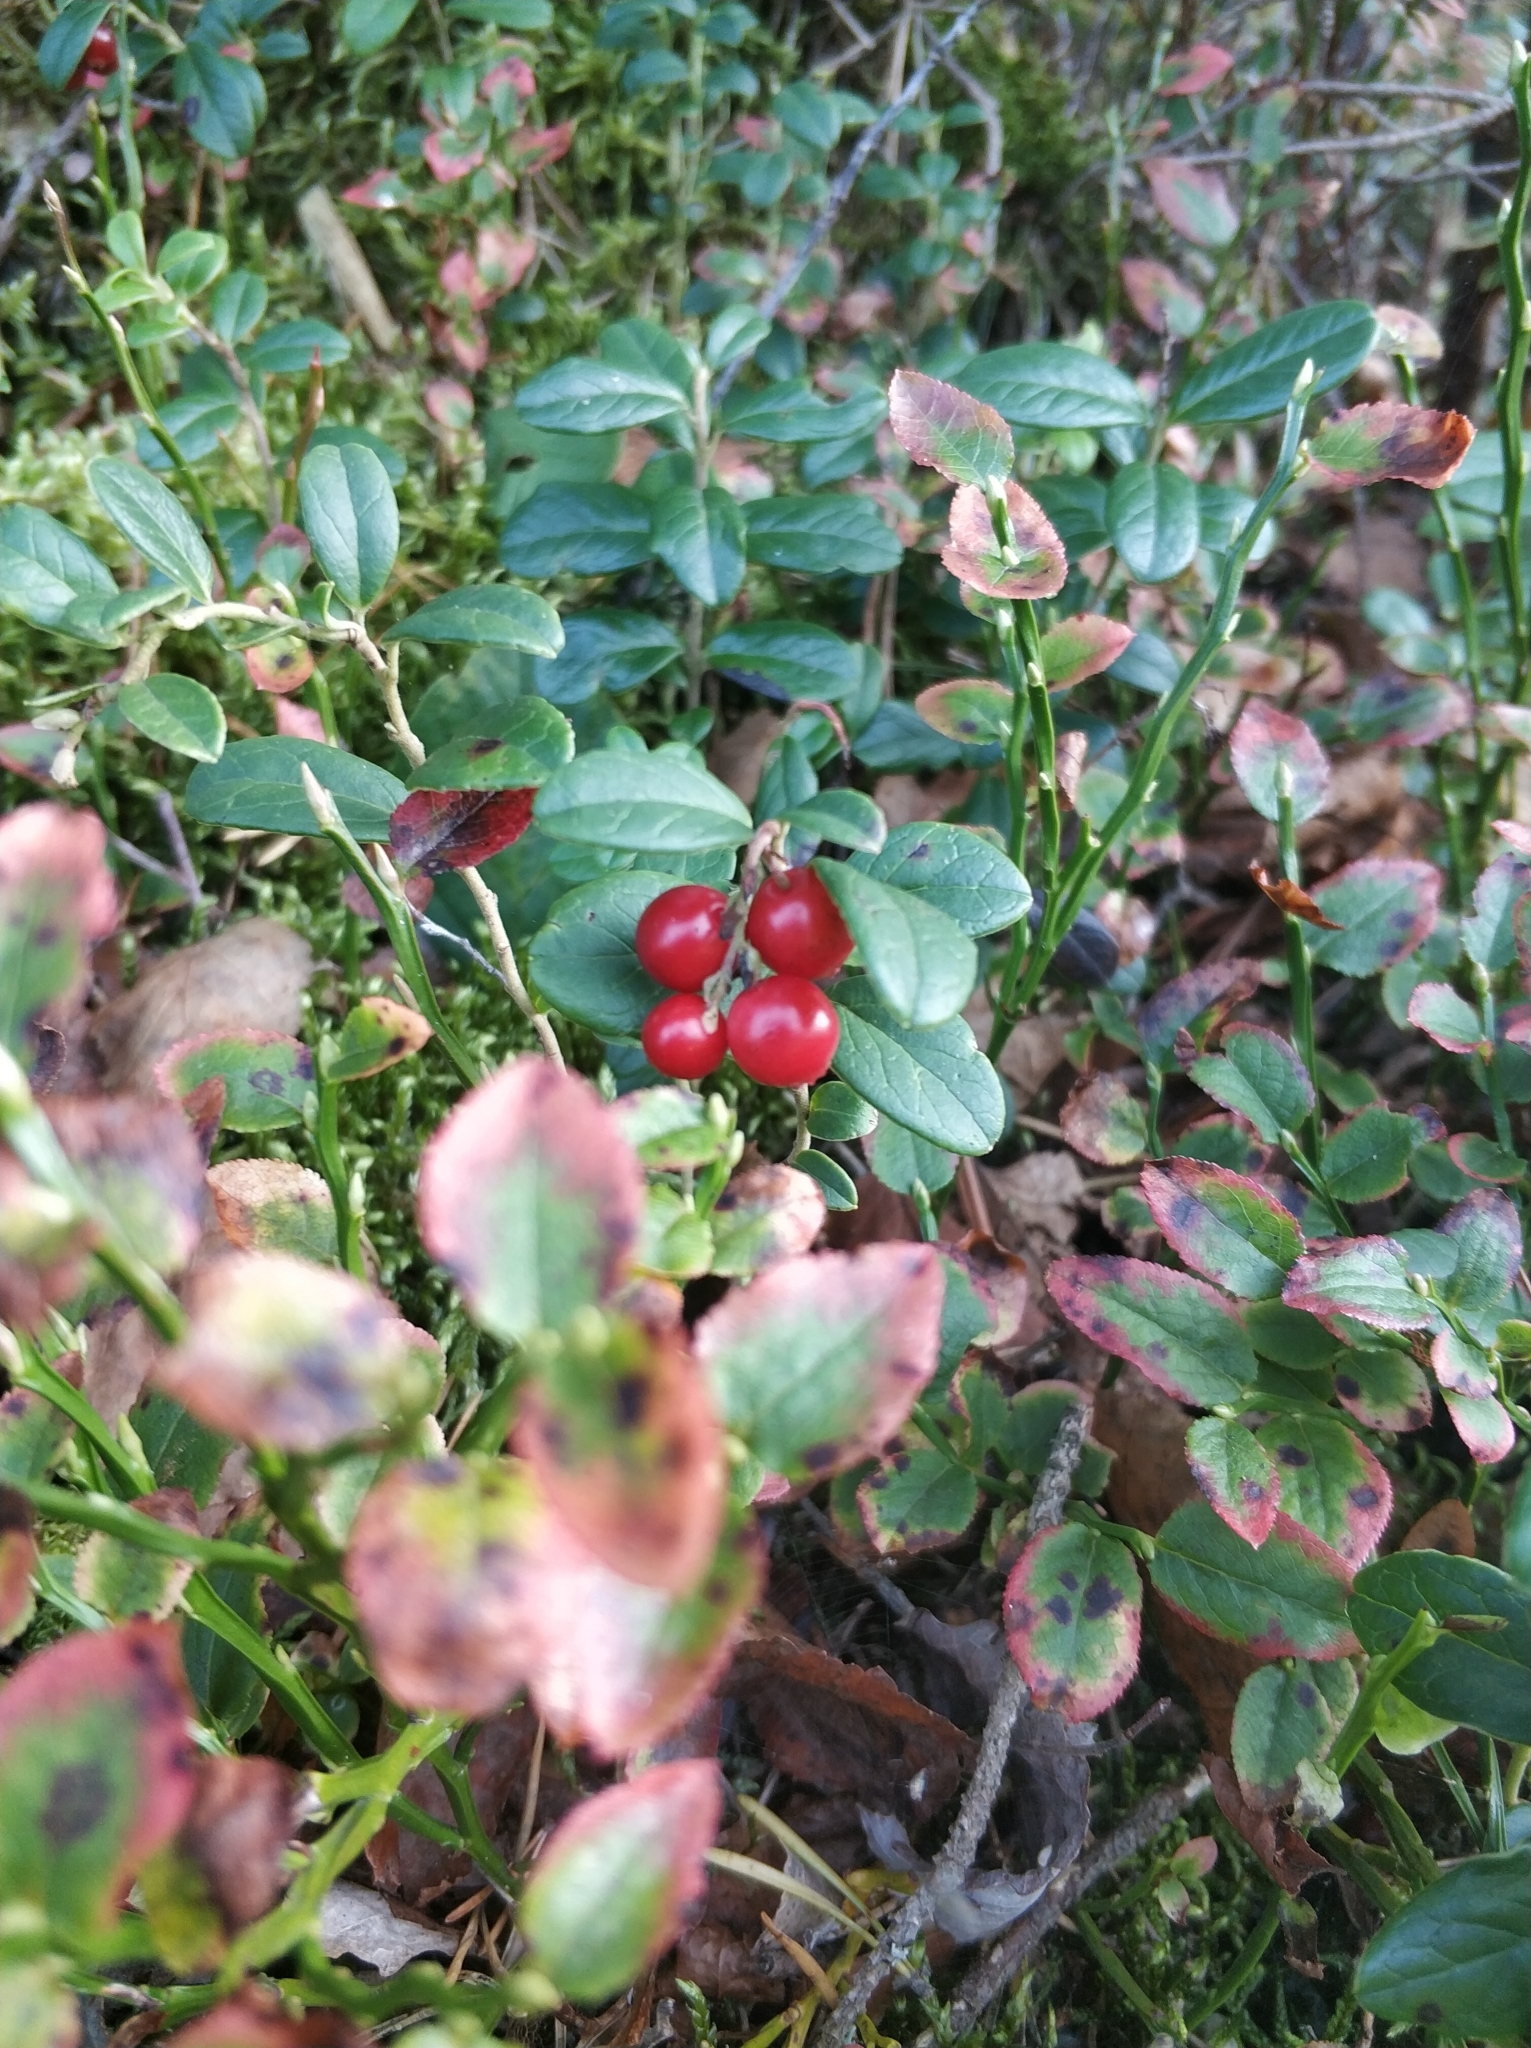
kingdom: Plantae
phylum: Tracheophyta
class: Magnoliopsida
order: Ericales
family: Ericaceae
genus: Vaccinium
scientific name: Vaccinium vitis-idaea
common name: Cowberry
